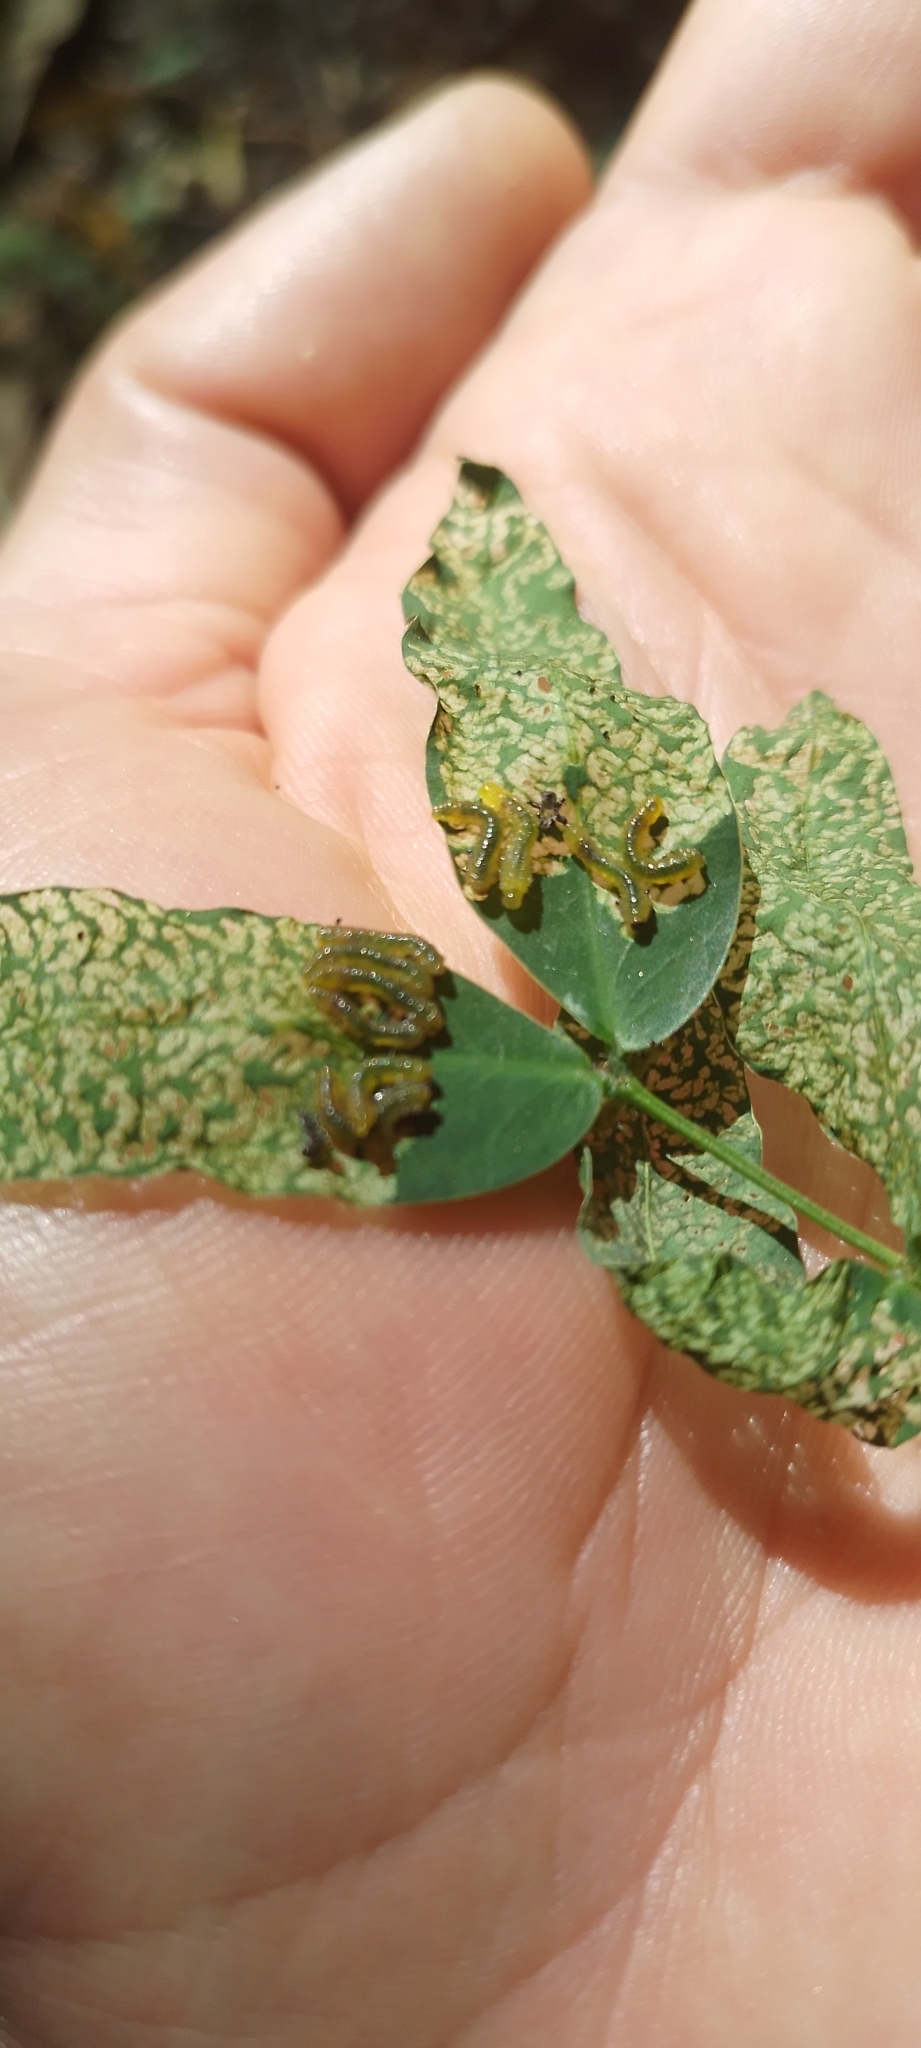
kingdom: Animalia
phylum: Arthropoda
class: Insecta
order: Hymenoptera
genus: Adurgoa
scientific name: Adurgoa
